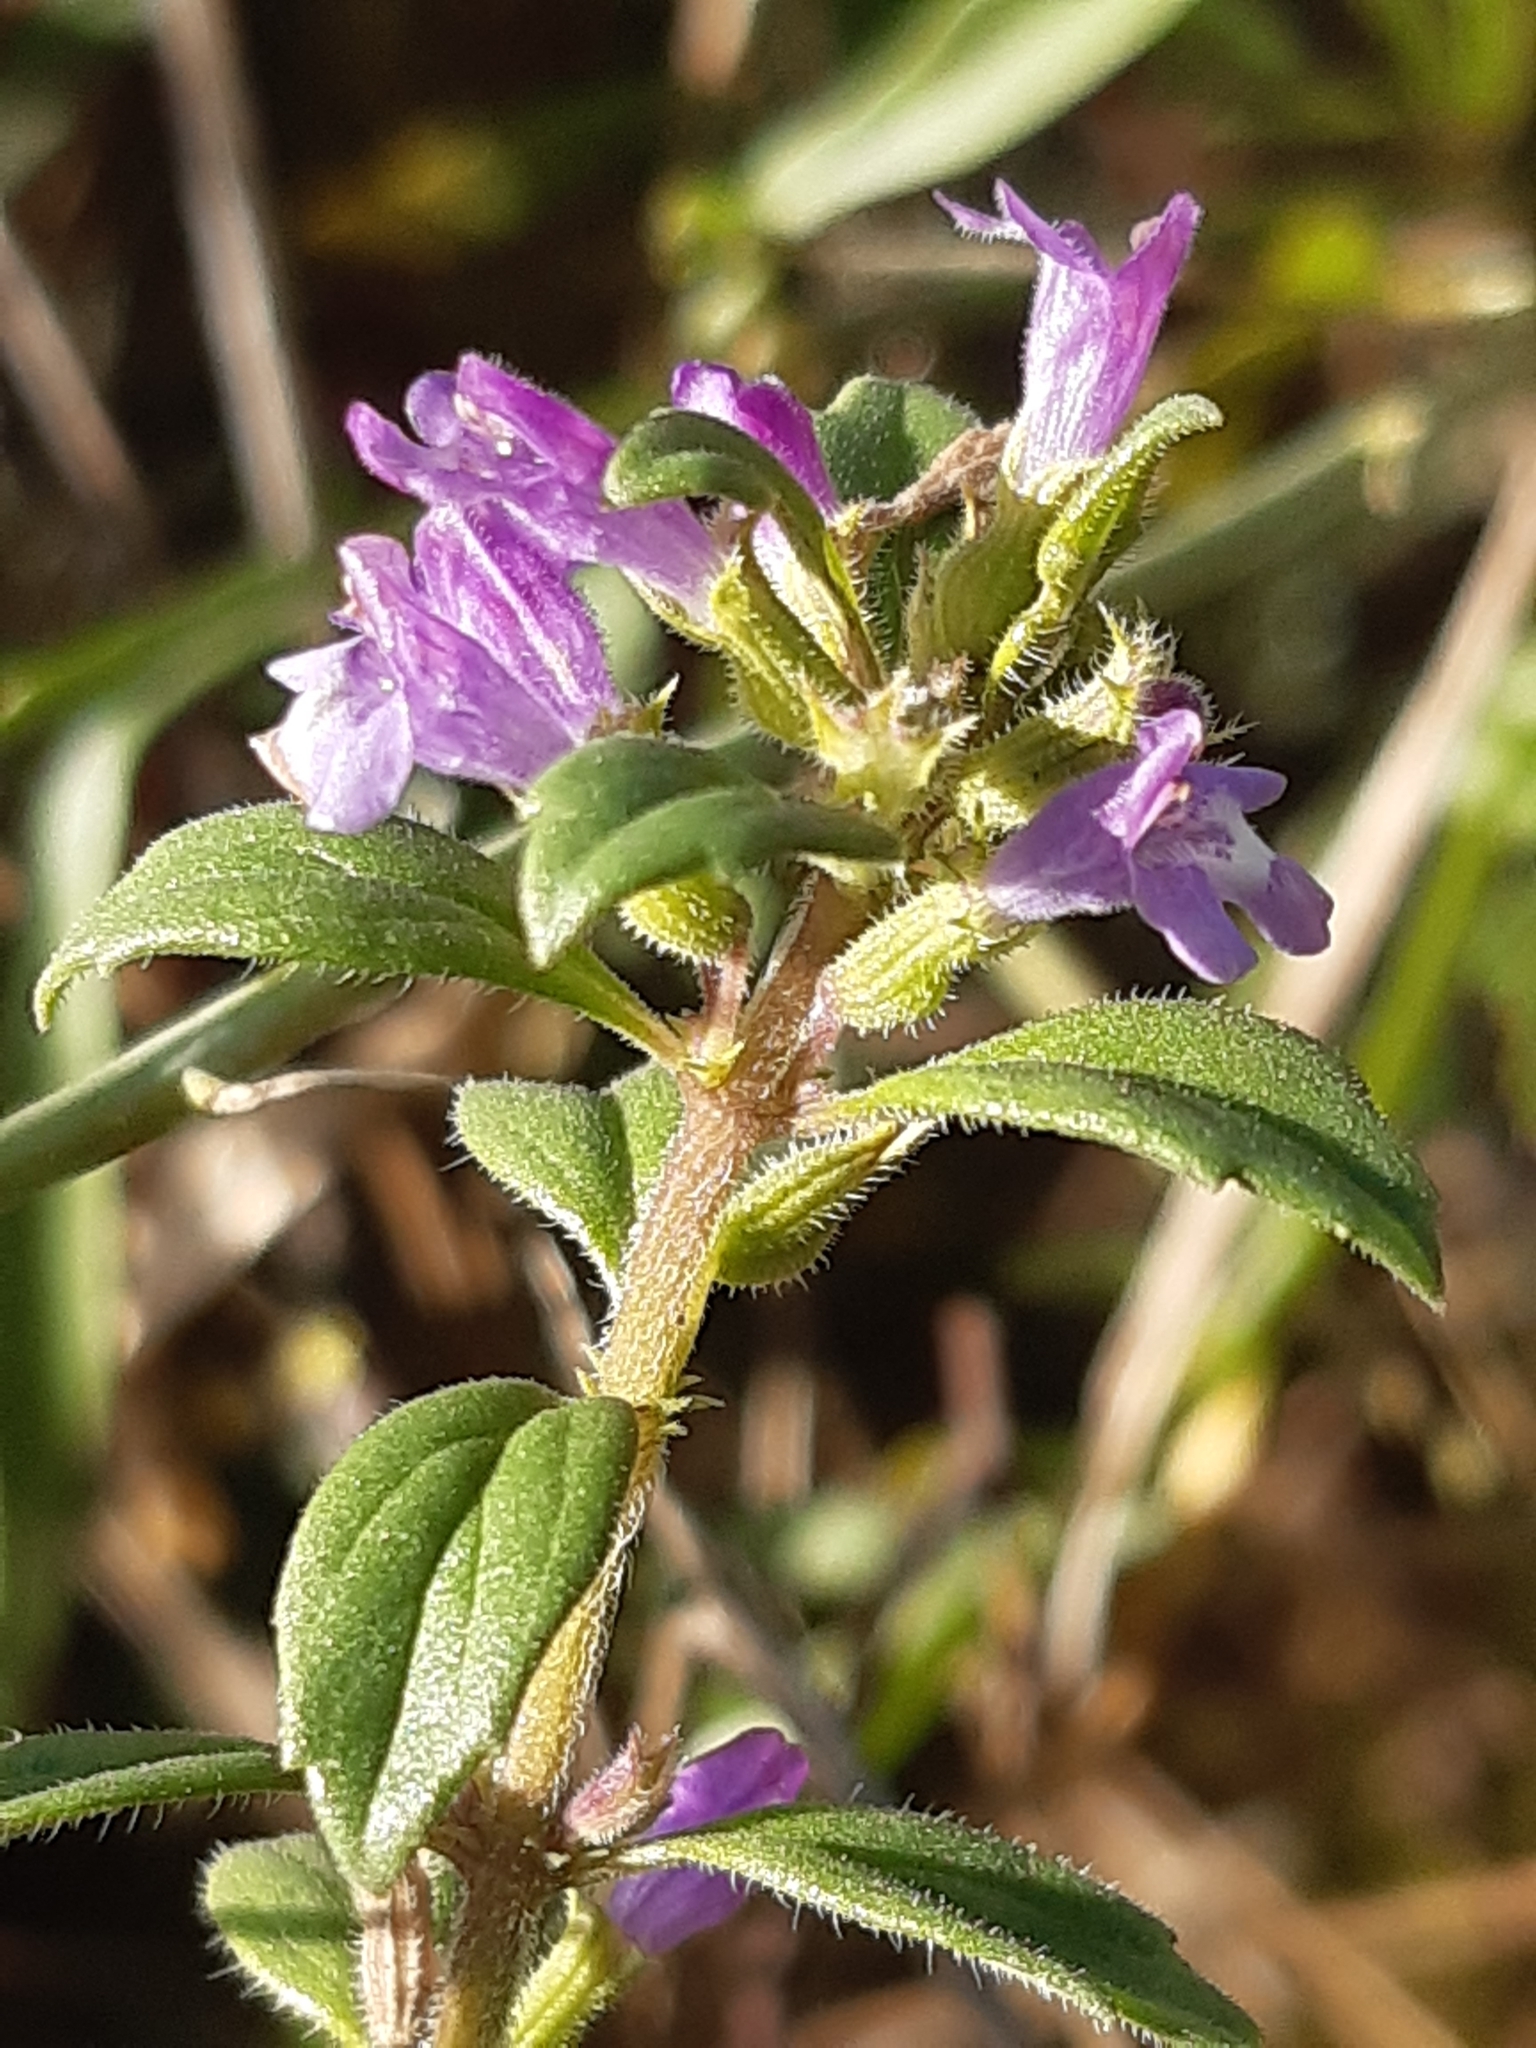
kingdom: Plantae
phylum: Tracheophyta
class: Magnoliopsida
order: Lamiales
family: Lamiaceae
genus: Clinopodium
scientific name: Clinopodium acinos
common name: Basil thyme
